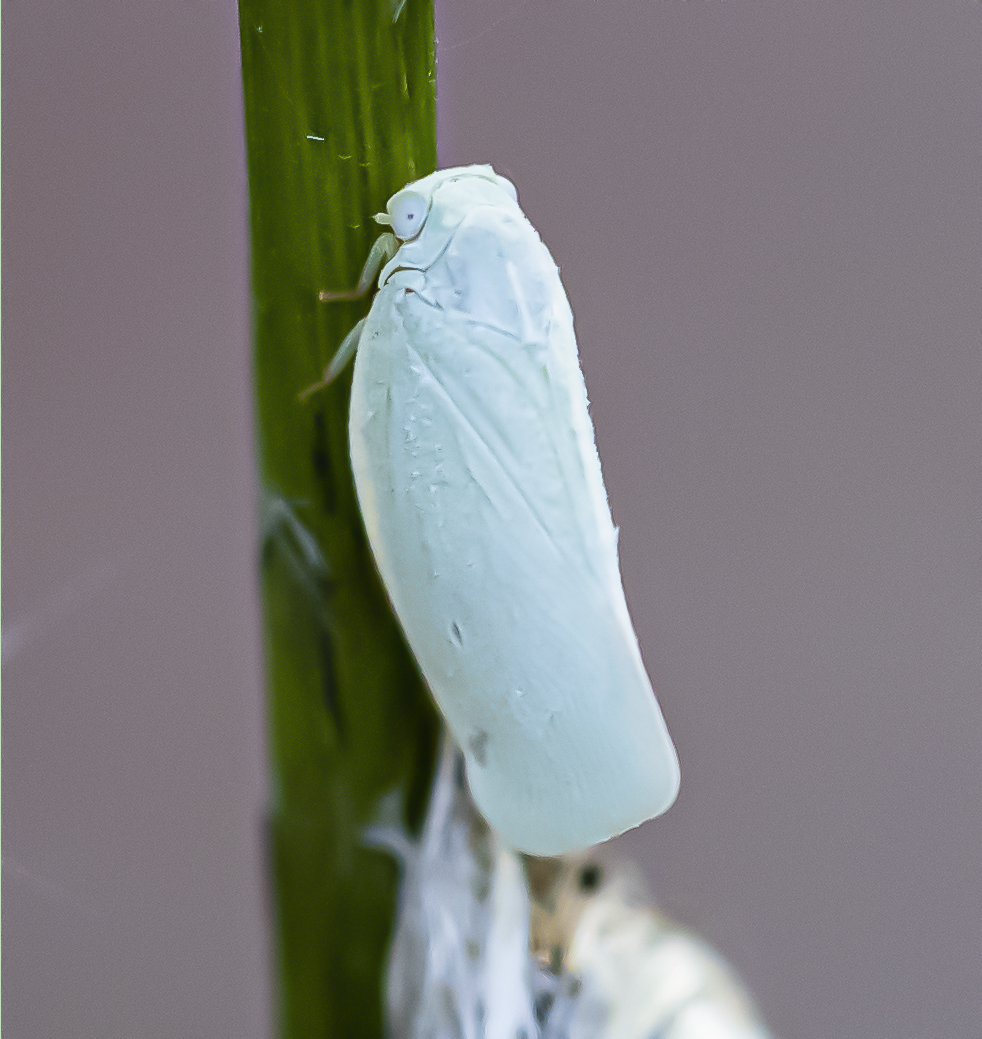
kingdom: Animalia
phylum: Arthropoda
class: Insecta
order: Hemiptera
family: Flatidae
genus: Flatormenis
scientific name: Flatormenis proxima
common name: Northern flatid planthopper
